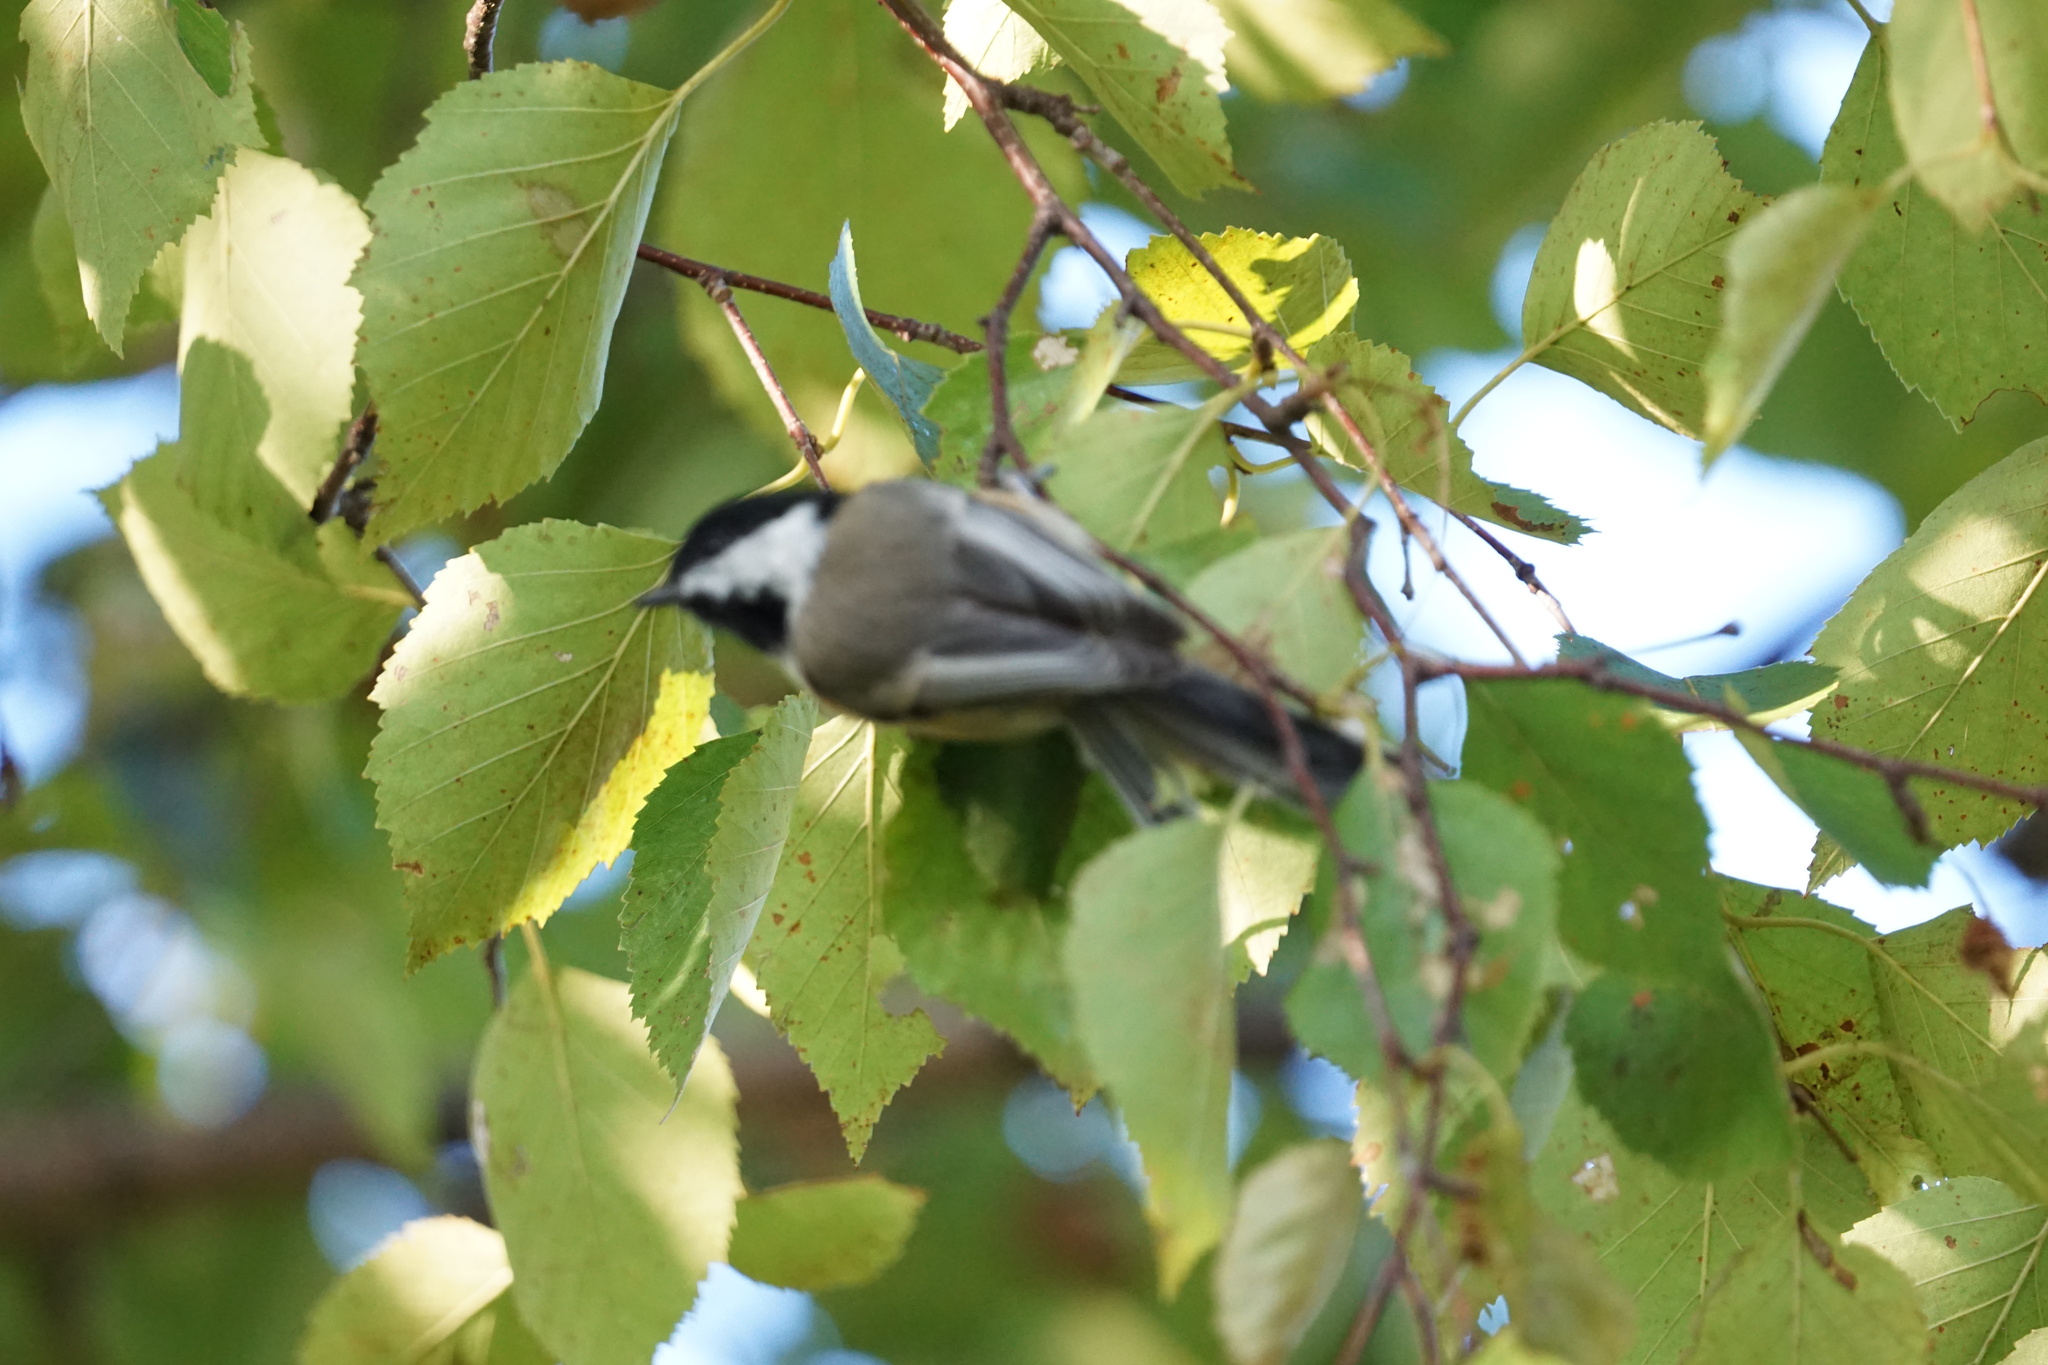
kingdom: Animalia
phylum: Chordata
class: Aves
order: Passeriformes
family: Paridae
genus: Poecile
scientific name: Poecile atricapillus
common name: Black-capped chickadee
